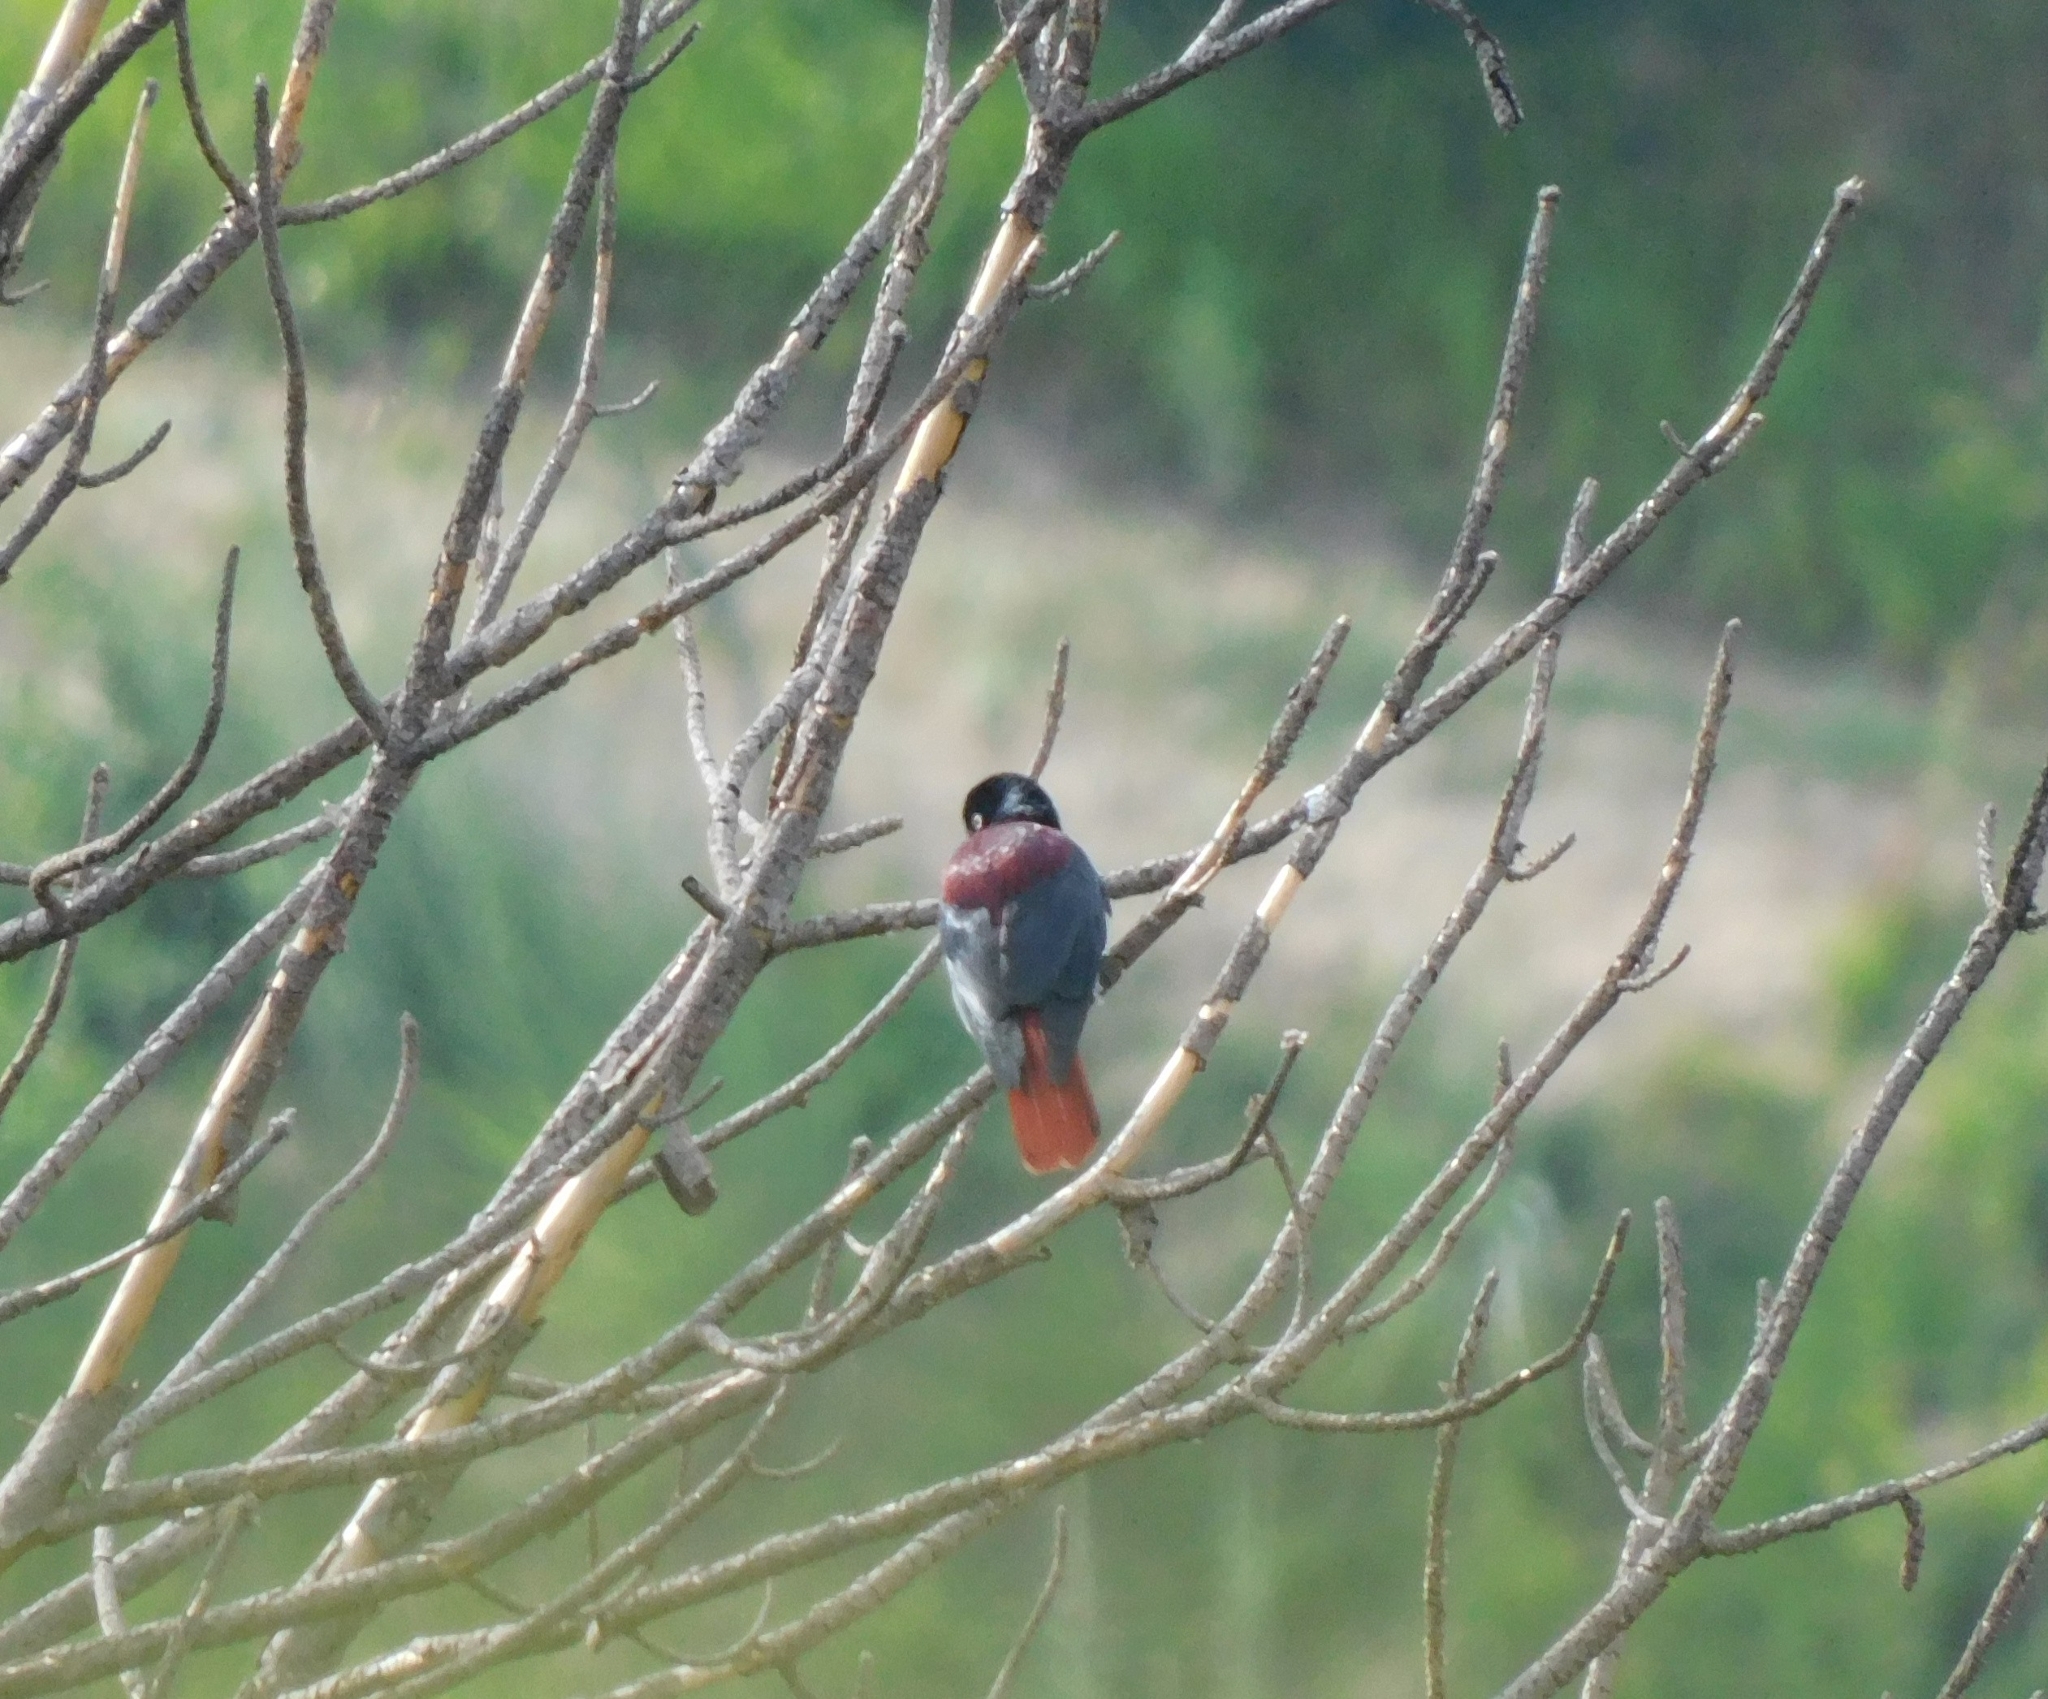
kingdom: Animalia
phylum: Chordata
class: Aves
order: Passeriformes
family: Oriolidae
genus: Oriolus
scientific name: Oriolus traillii
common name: Maroon oriole
